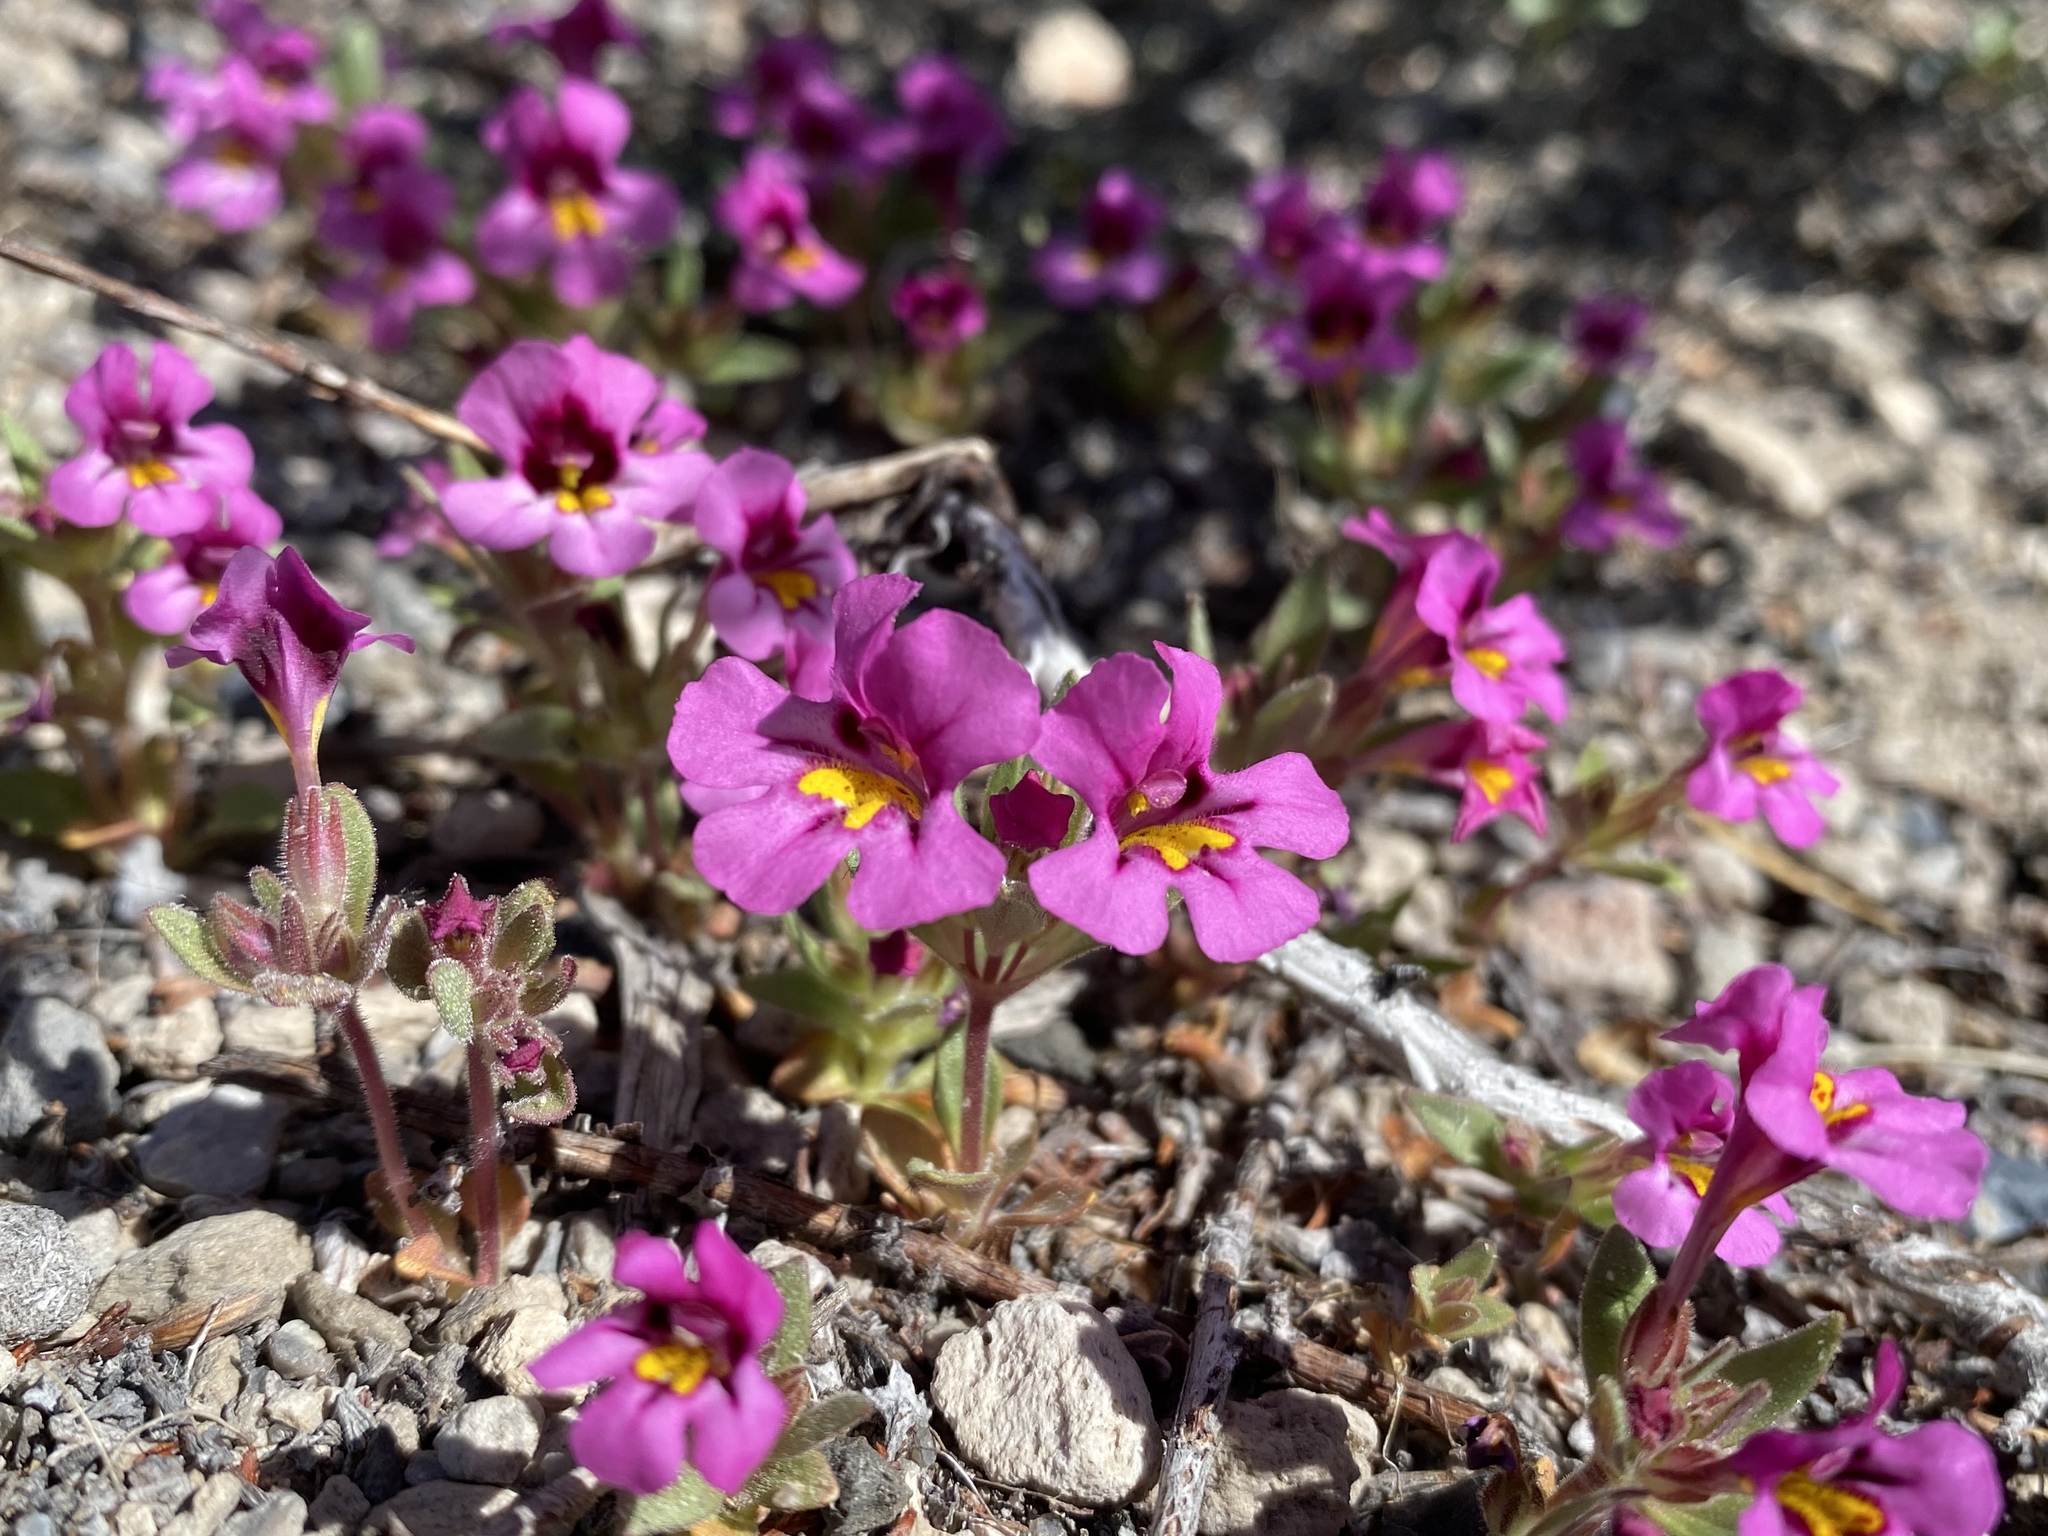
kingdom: Plantae
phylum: Tracheophyta
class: Magnoliopsida
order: Lamiales
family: Phrymaceae
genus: Diplacus
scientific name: Diplacus mephiticus
